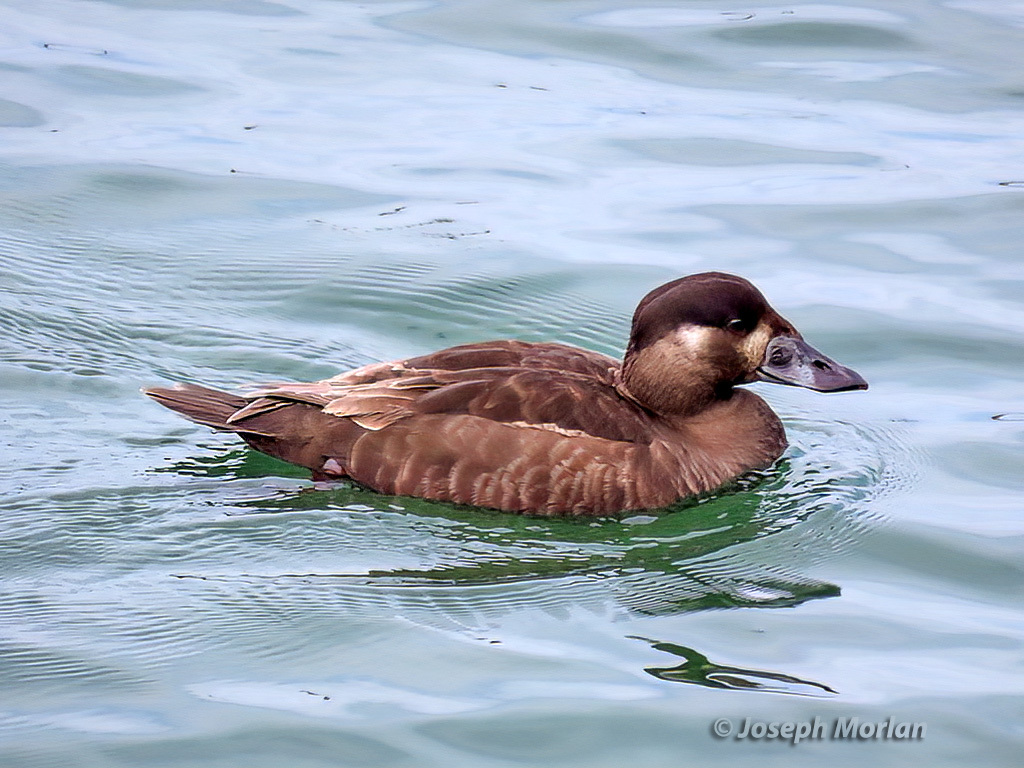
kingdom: Animalia
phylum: Chordata
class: Aves
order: Anseriformes
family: Anatidae
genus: Melanitta
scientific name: Melanitta perspicillata
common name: Surf scoter
